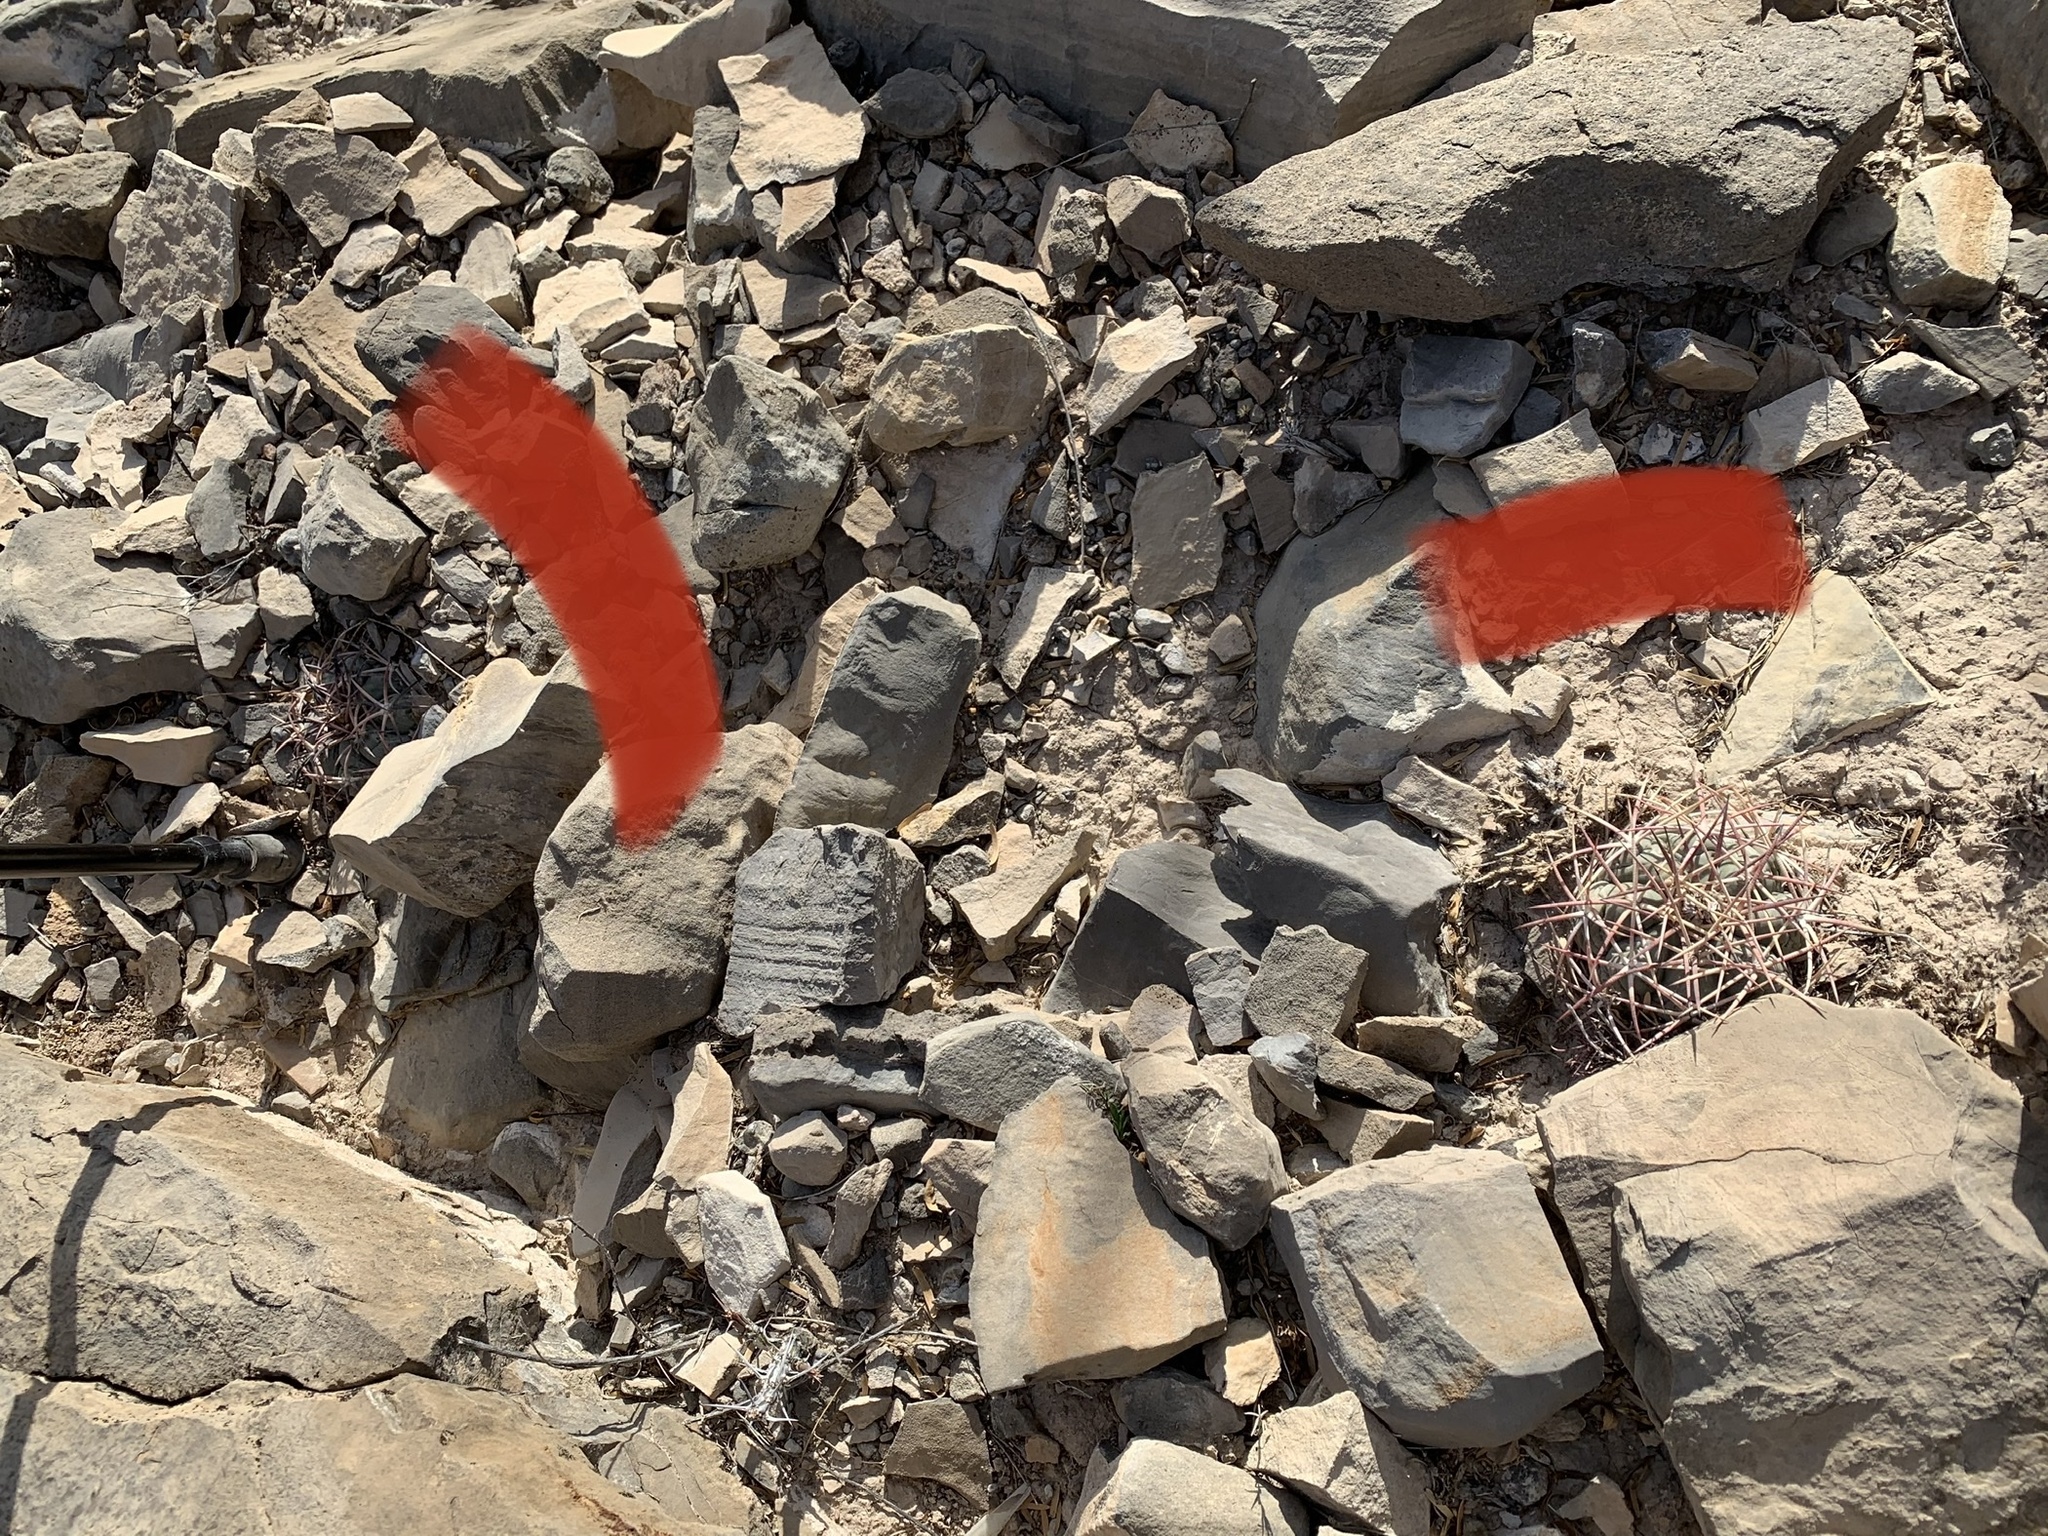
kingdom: Plantae
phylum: Tracheophyta
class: Magnoliopsida
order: Caryophyllales
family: Cactaceae
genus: Echinocactus
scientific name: Echinocactus horizonthalonius
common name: Devilshead
